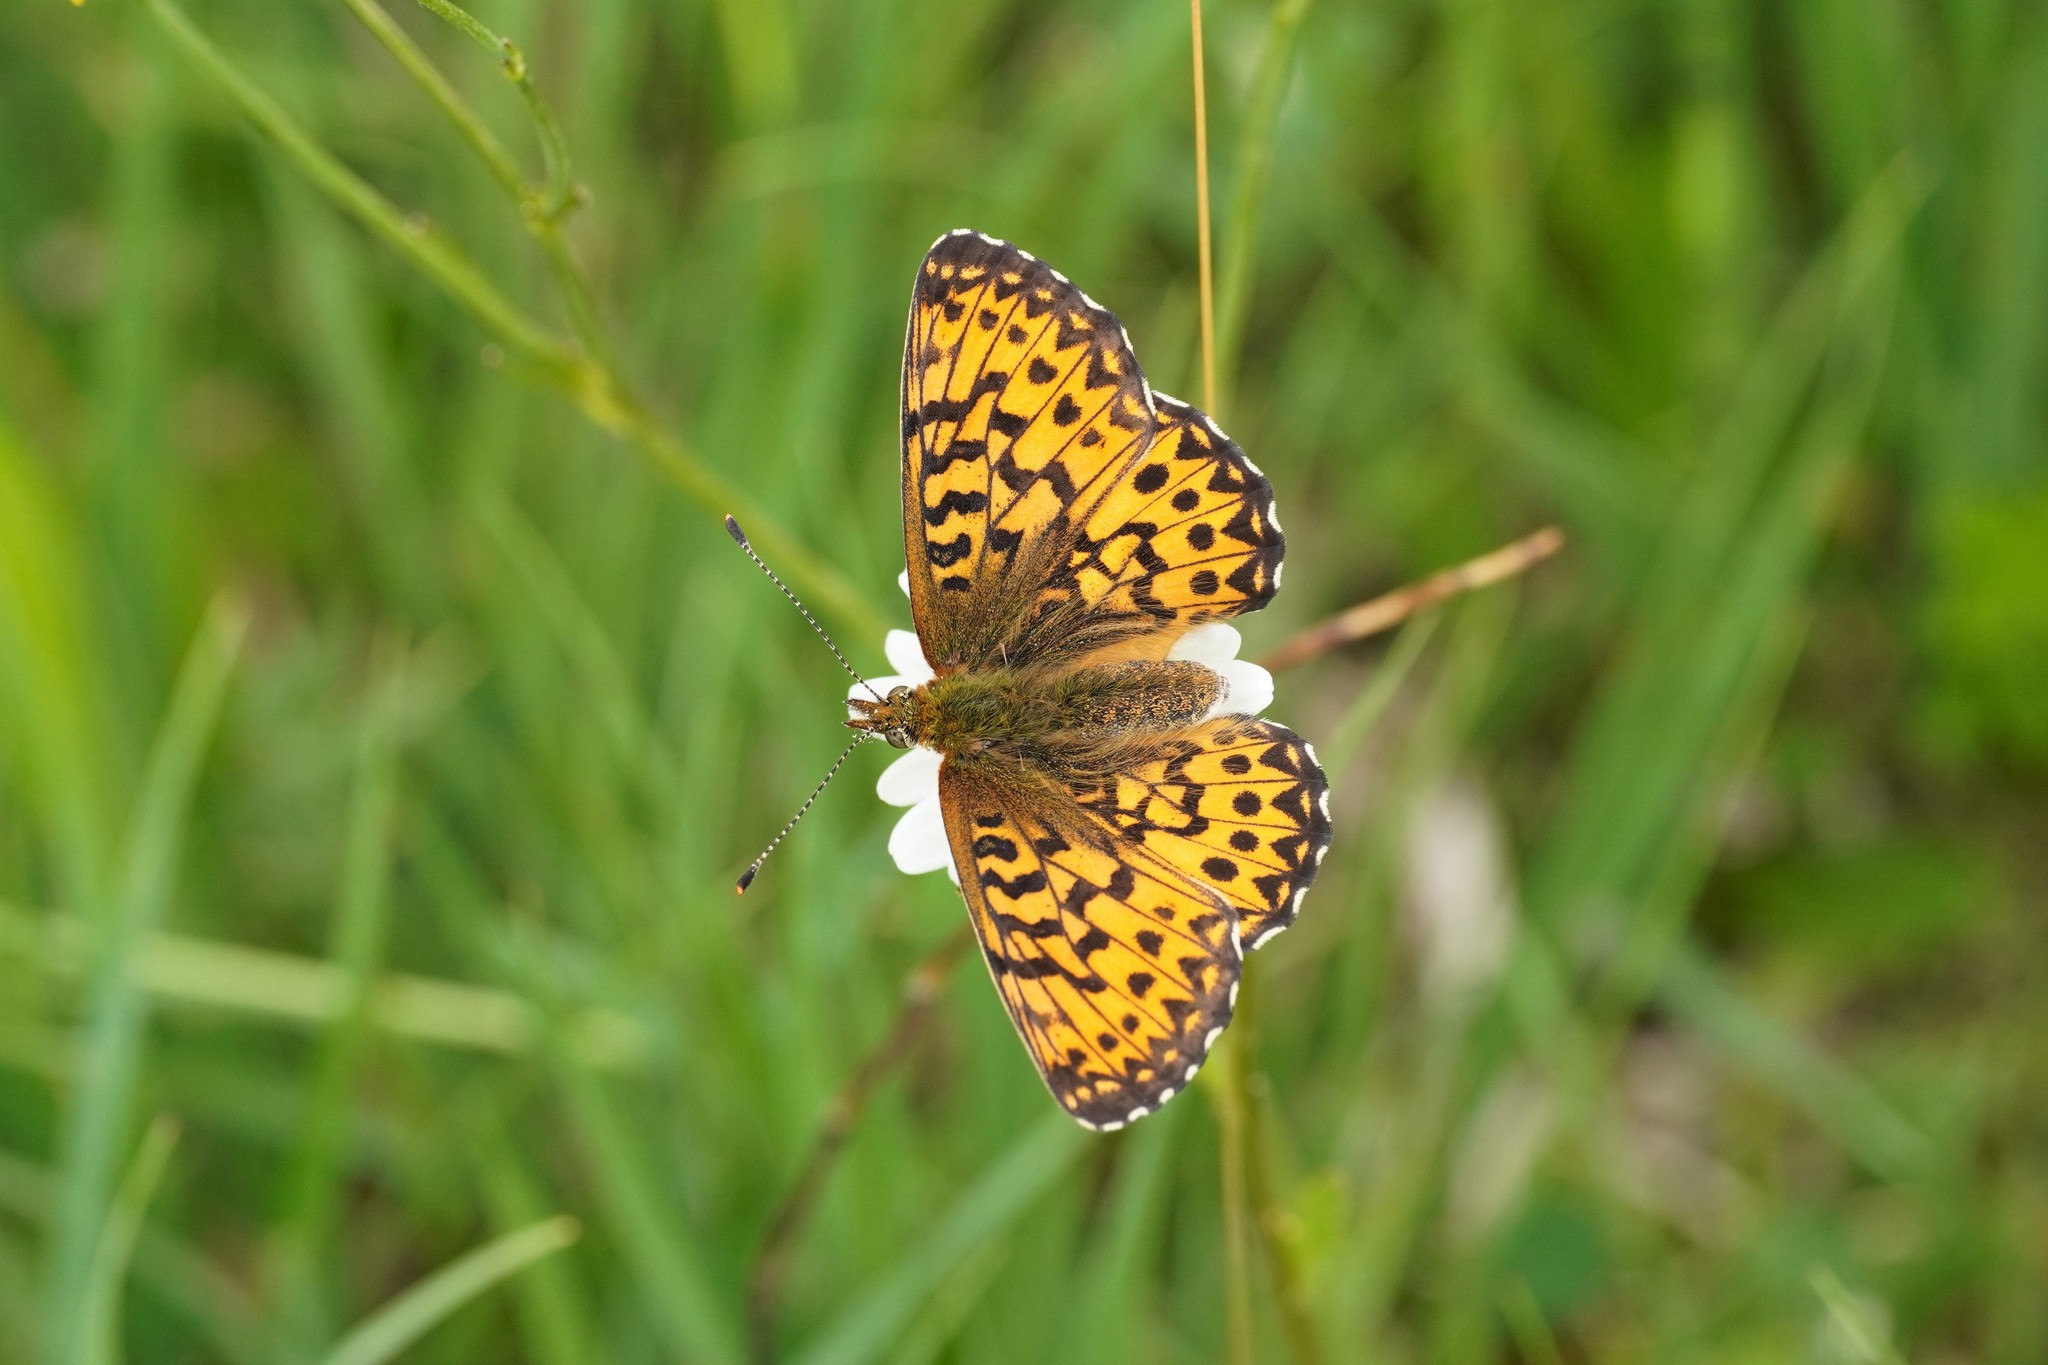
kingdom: Animalia
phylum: Arthropoda
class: Insecta
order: Lepidoptera
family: Nymphalidae
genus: Boloria
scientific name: Boloria titania
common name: Titania's fritillary
